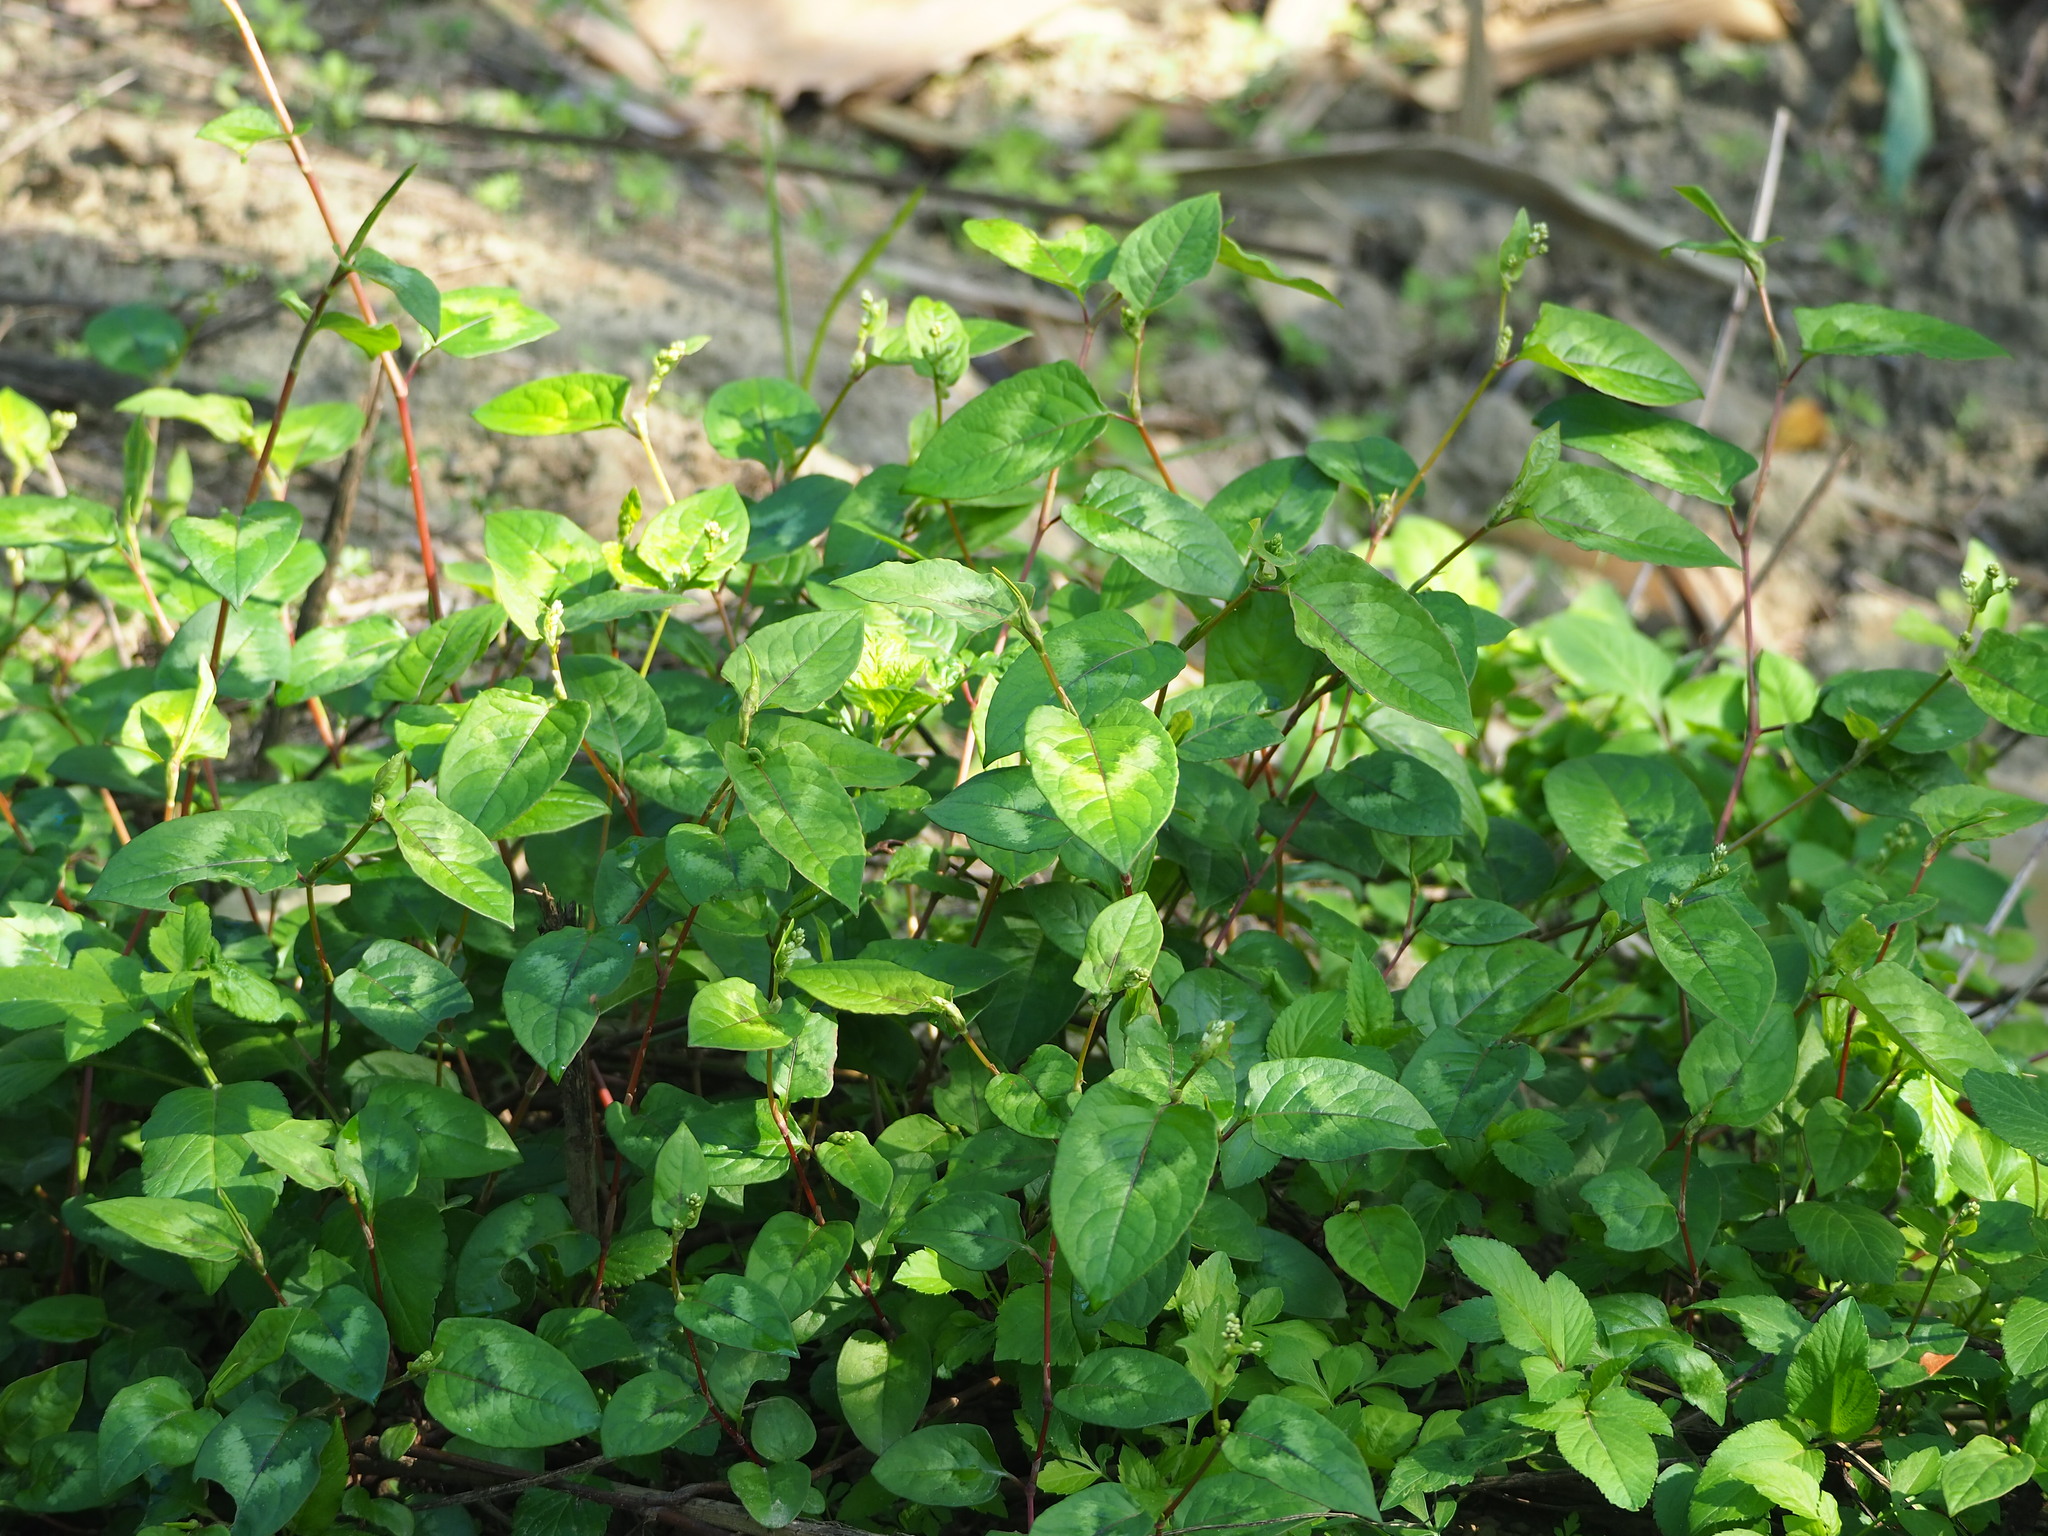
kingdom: Plantae
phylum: Tracheophyta
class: Magnoliopsida
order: Caryophyllales
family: Polygonaceae
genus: Persicaria
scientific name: Persicaria chinensis
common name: Chinese knotweed
